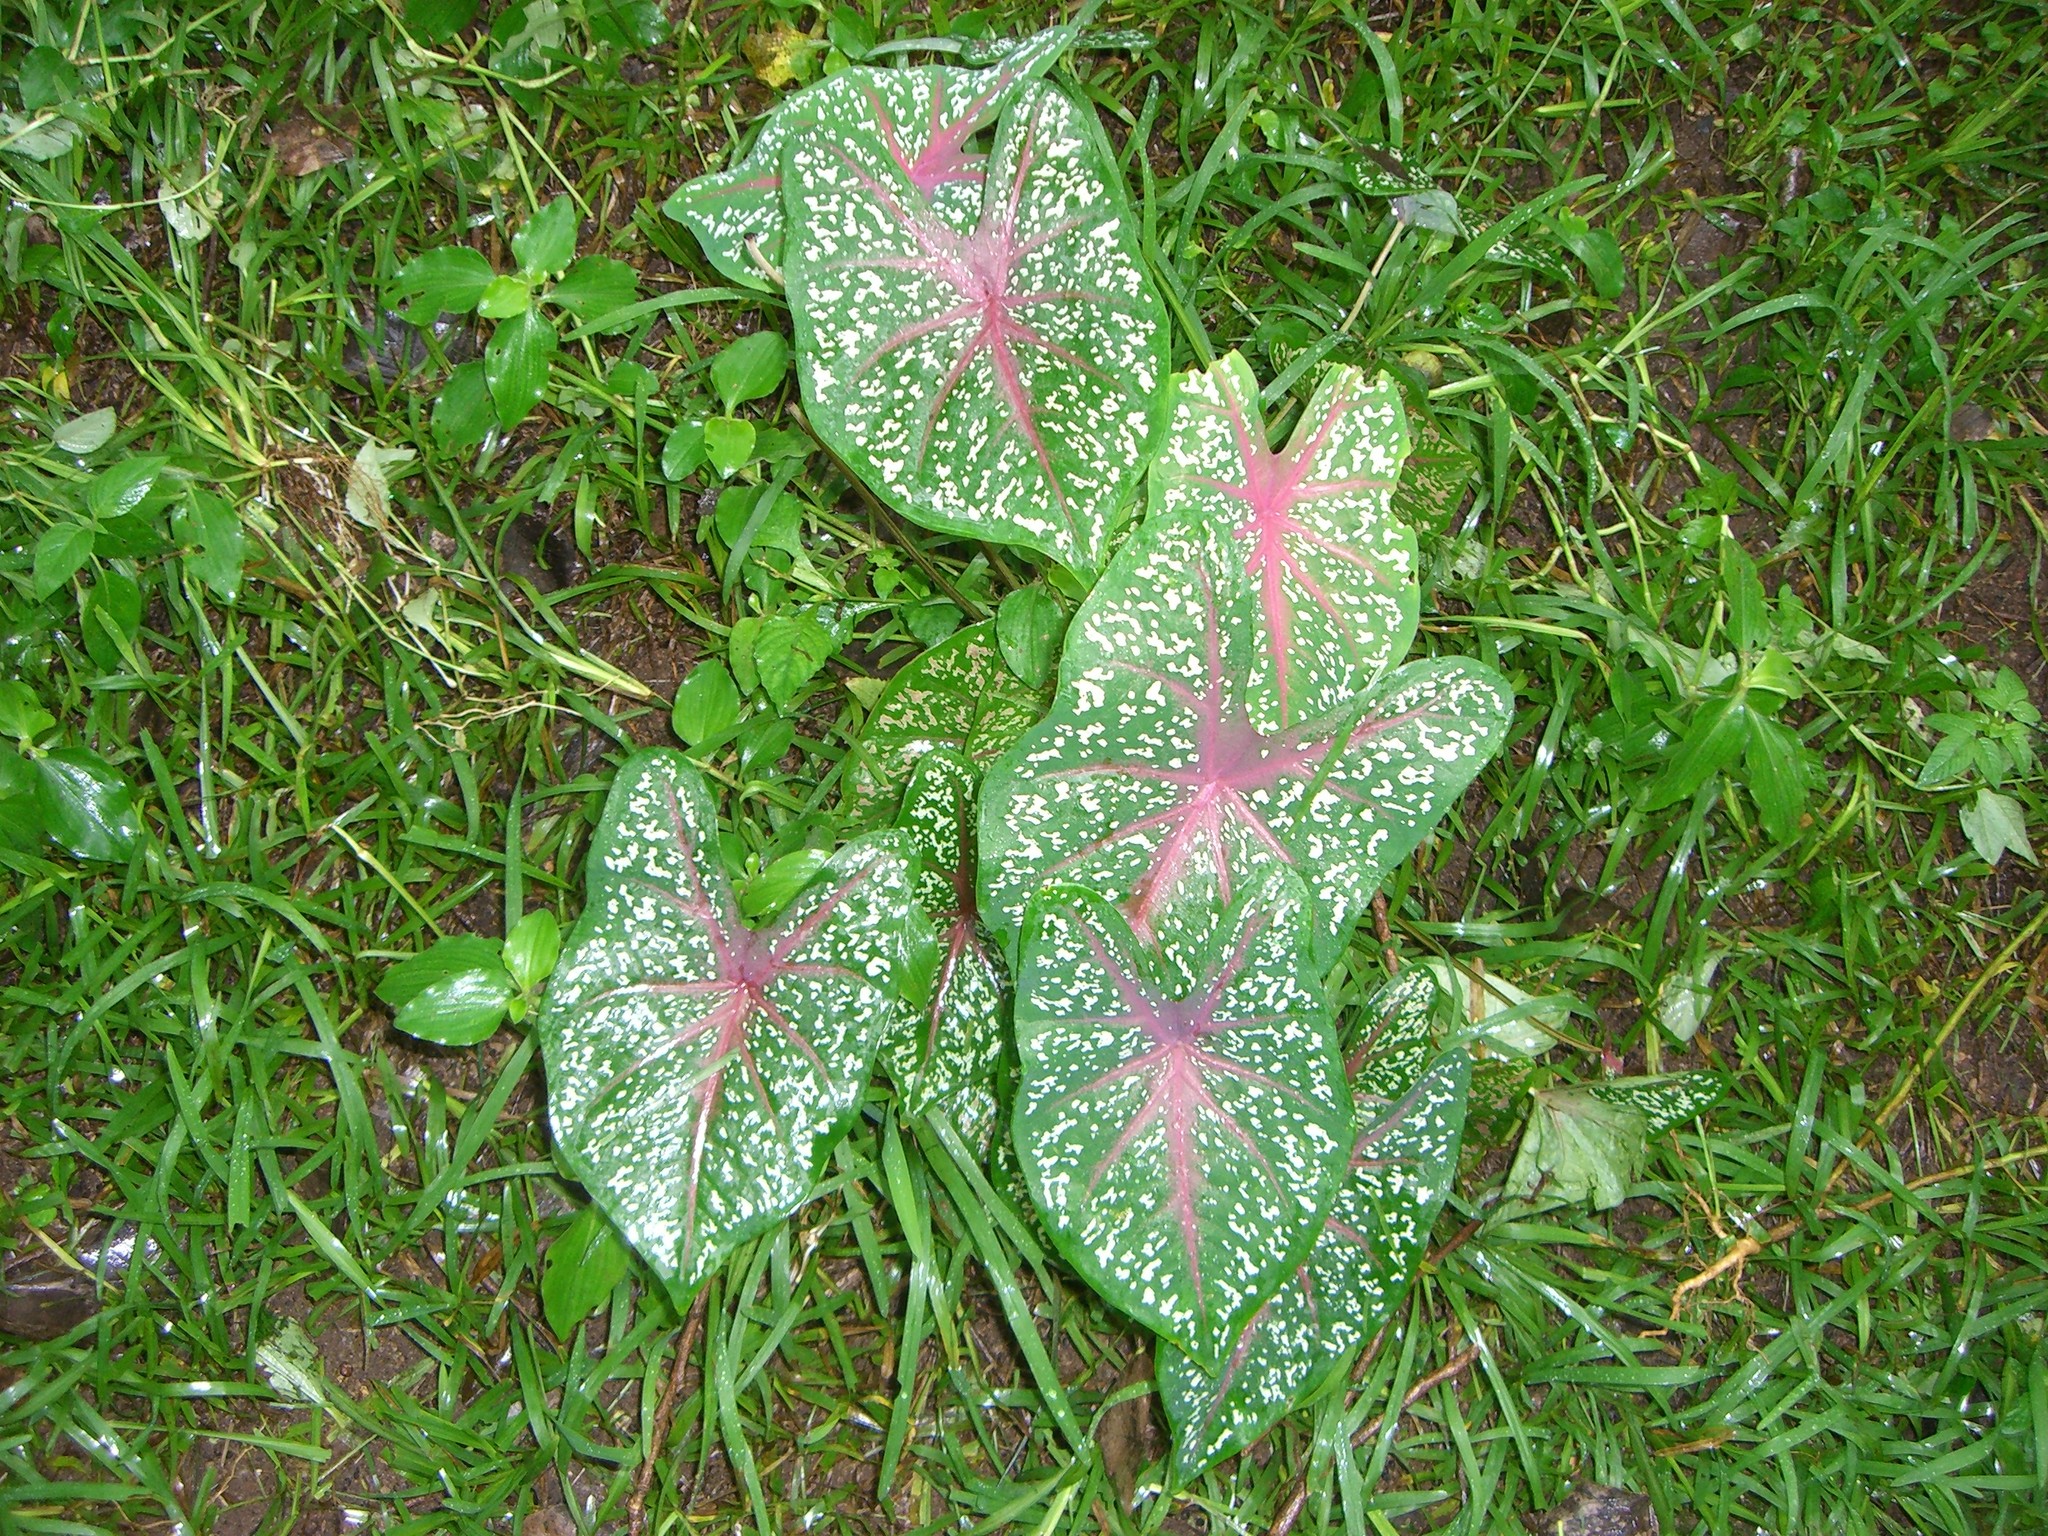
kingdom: Plantae
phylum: Tracheophyta
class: Liliopsida
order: Alismatales
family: Araceae
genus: Caladium
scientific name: Caladium bicolor
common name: Artist's pallet
